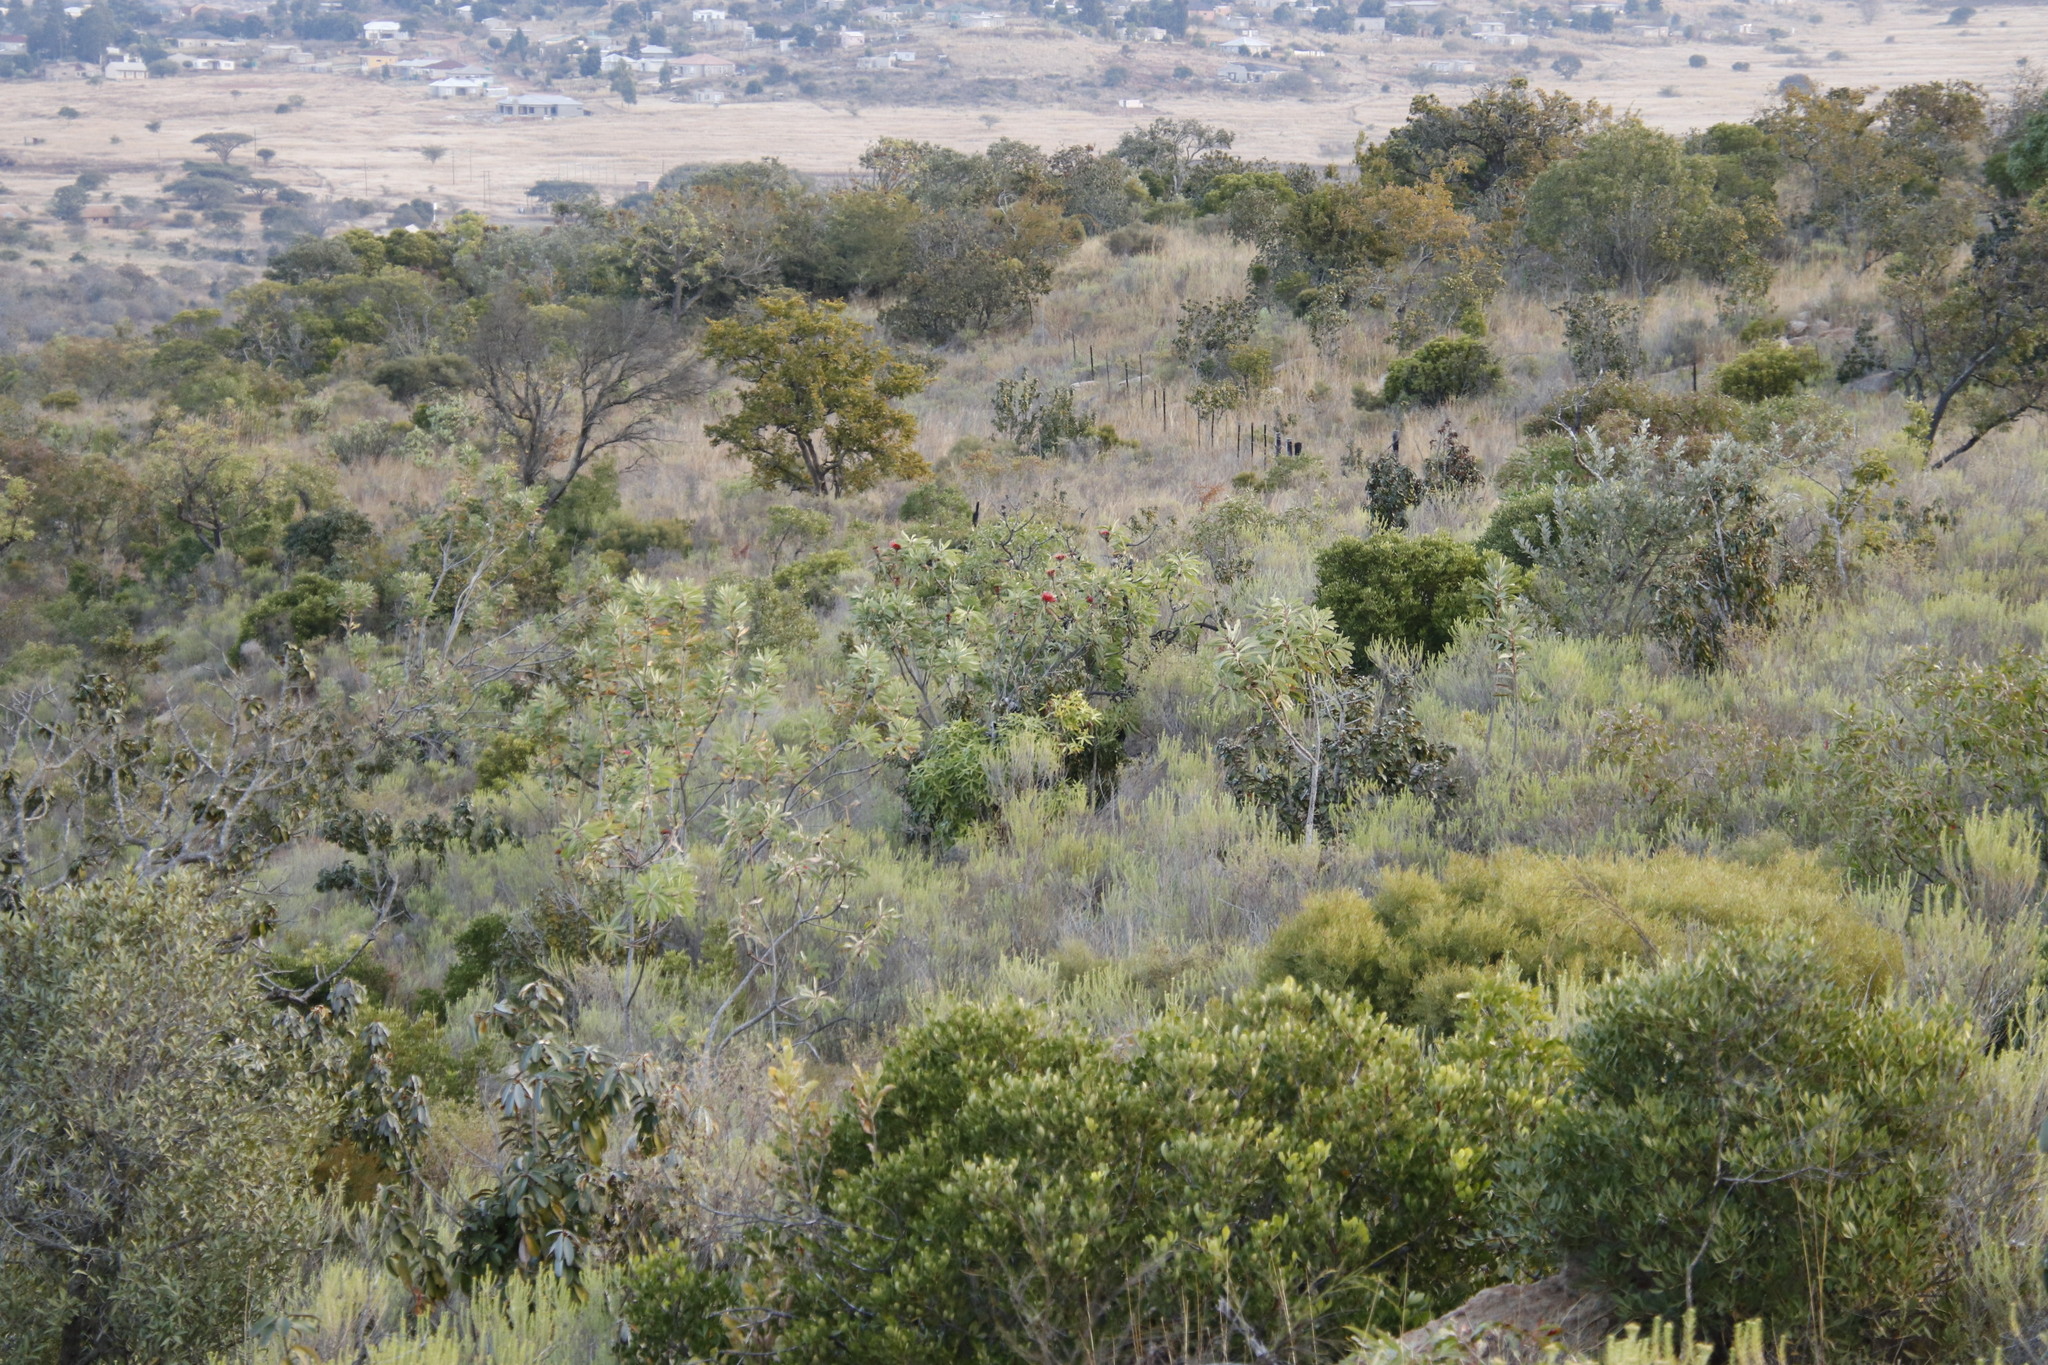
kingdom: Plantae
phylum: Tracheophyta
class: Magnoliopsida
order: Proteales
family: Proteaceae
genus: Protea
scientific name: Protea laetans
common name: Blyde protea
